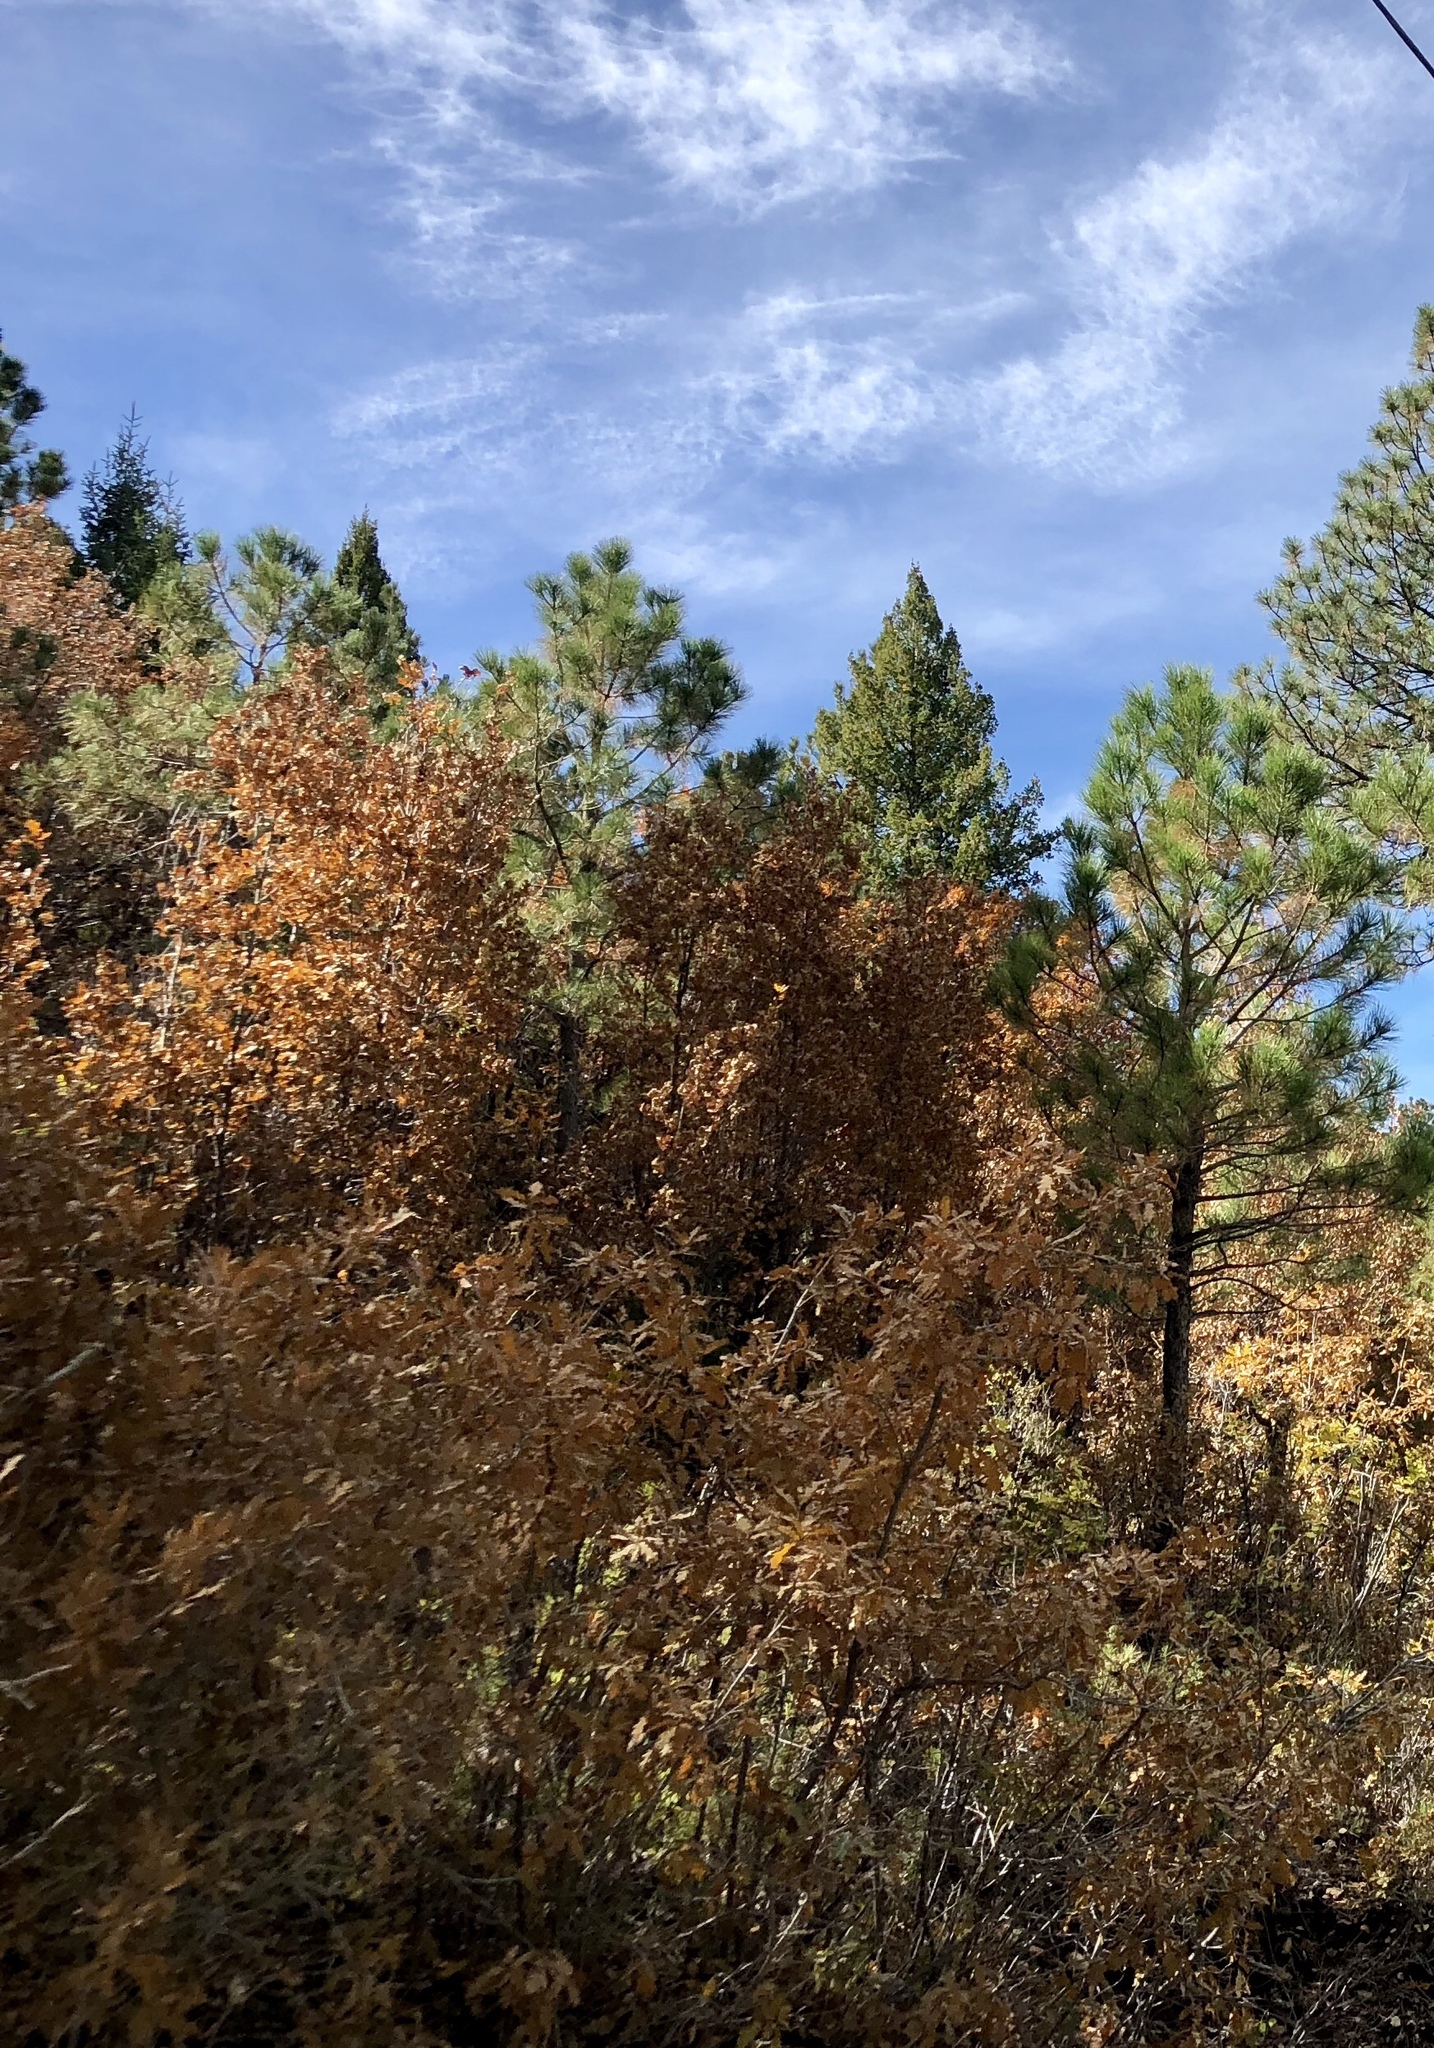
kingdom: Plantae
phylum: Tracheophyta
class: Magnoliopsida
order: Fagales
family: Fagaceae
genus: Quercus
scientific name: Quercus gambelii
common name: Gambel oak
